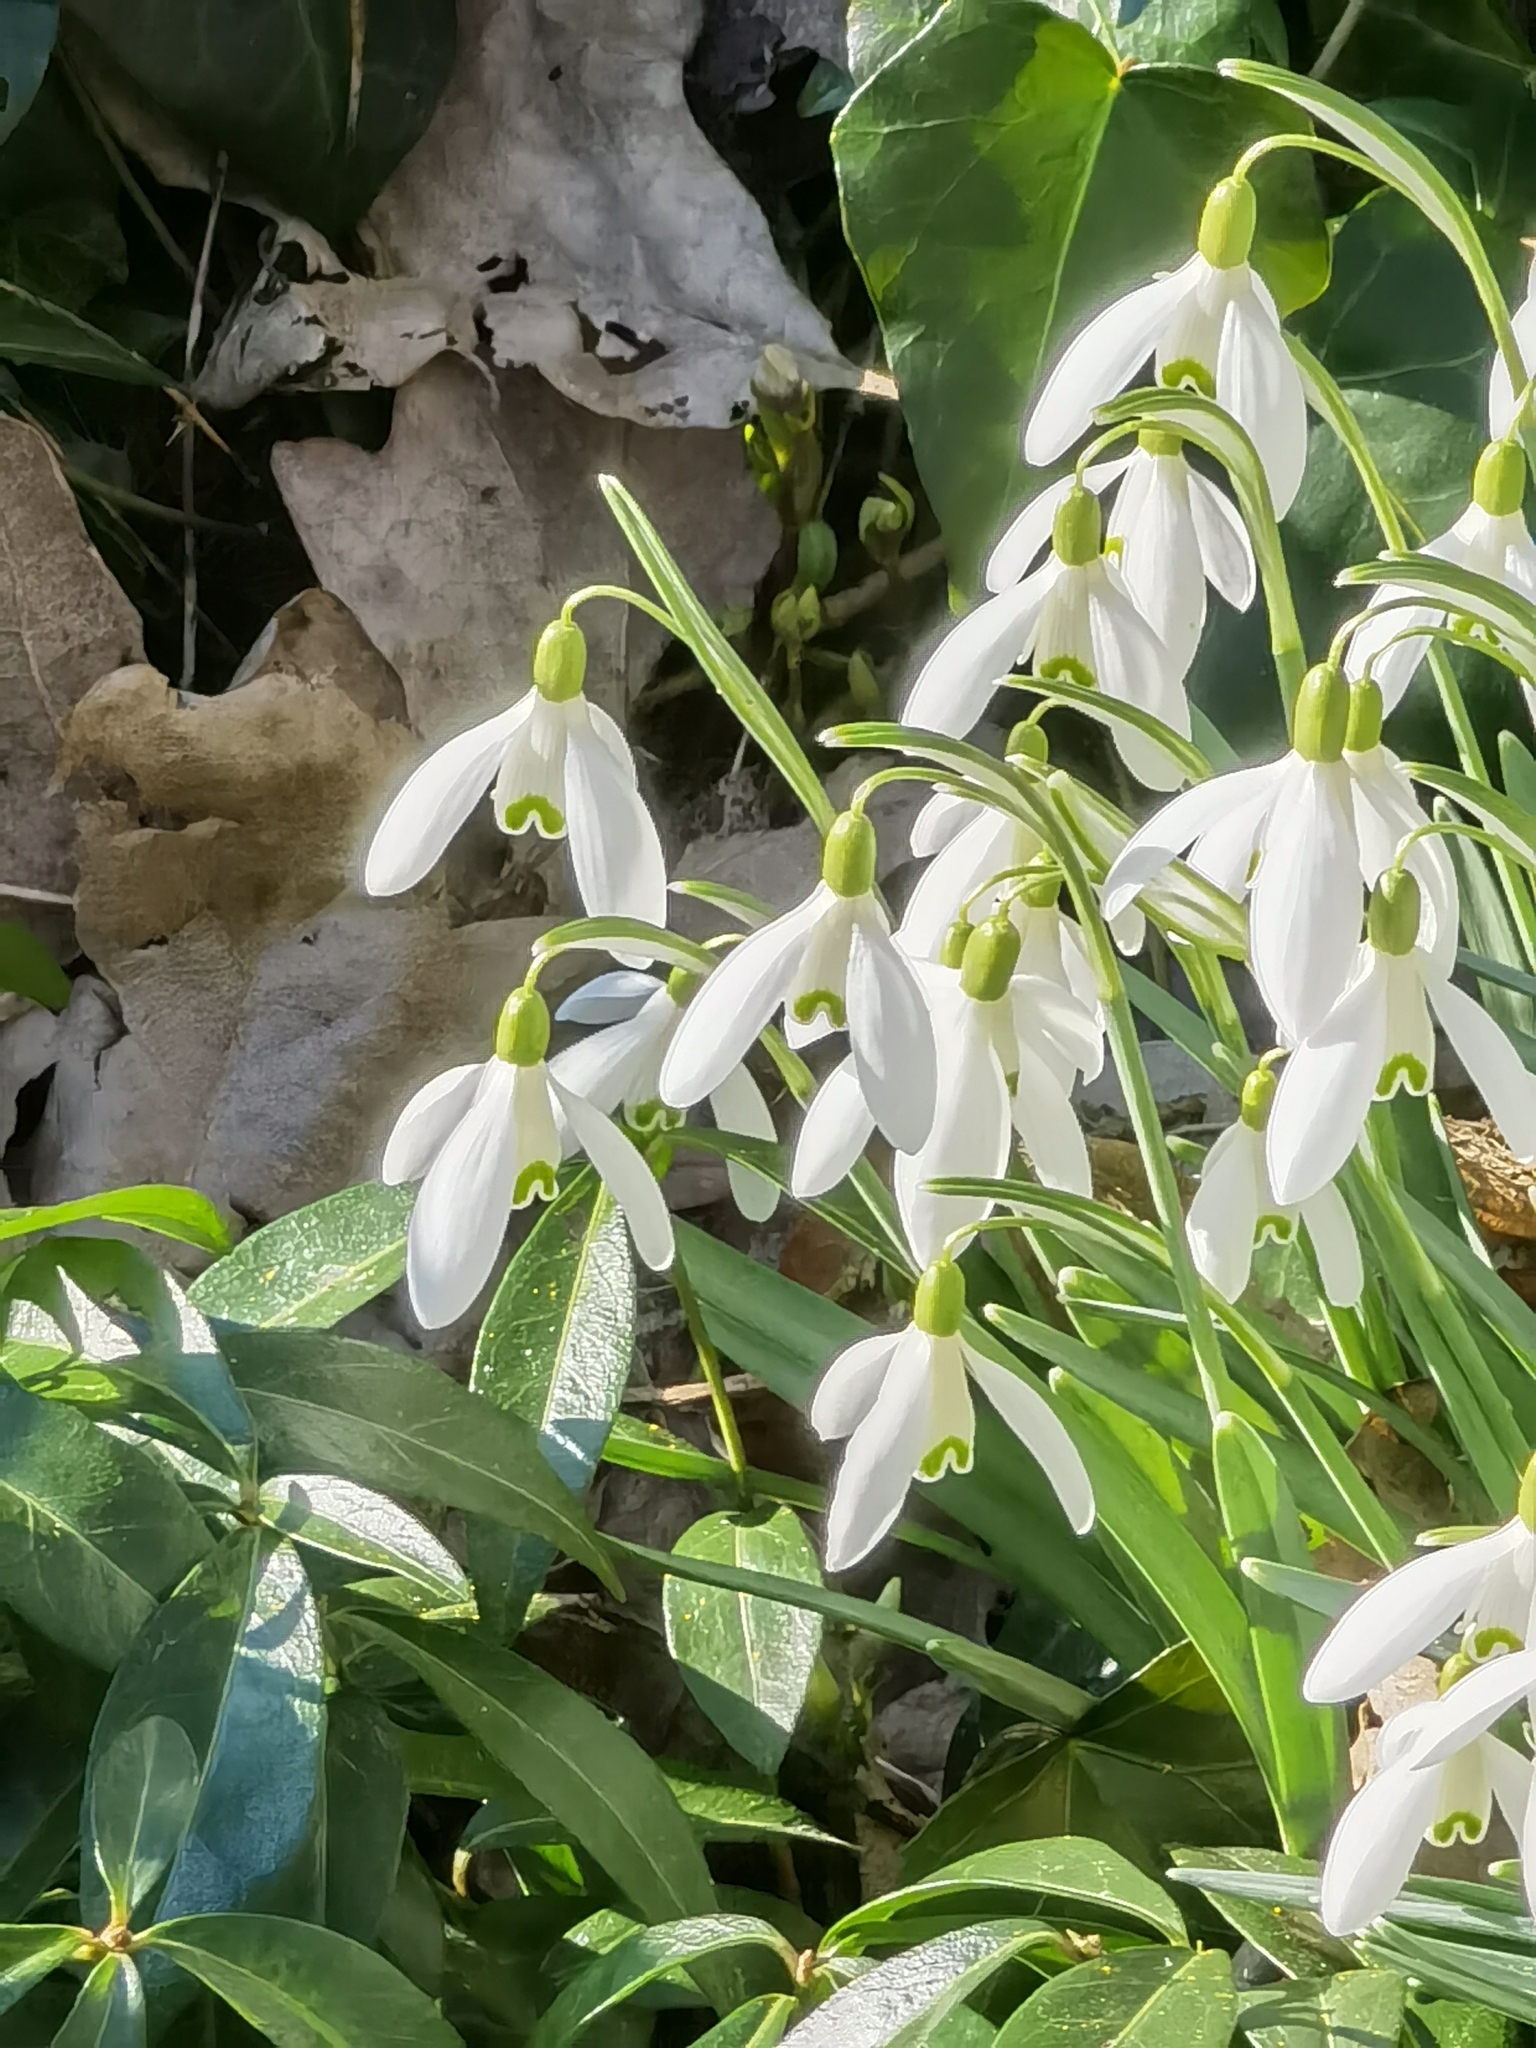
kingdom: Plantae
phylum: Tracheophyta
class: Liliopsida
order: Asparagales
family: Amaryllidaceae
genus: Galanthus
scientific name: Galanthus nivalis
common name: Snowdrop
